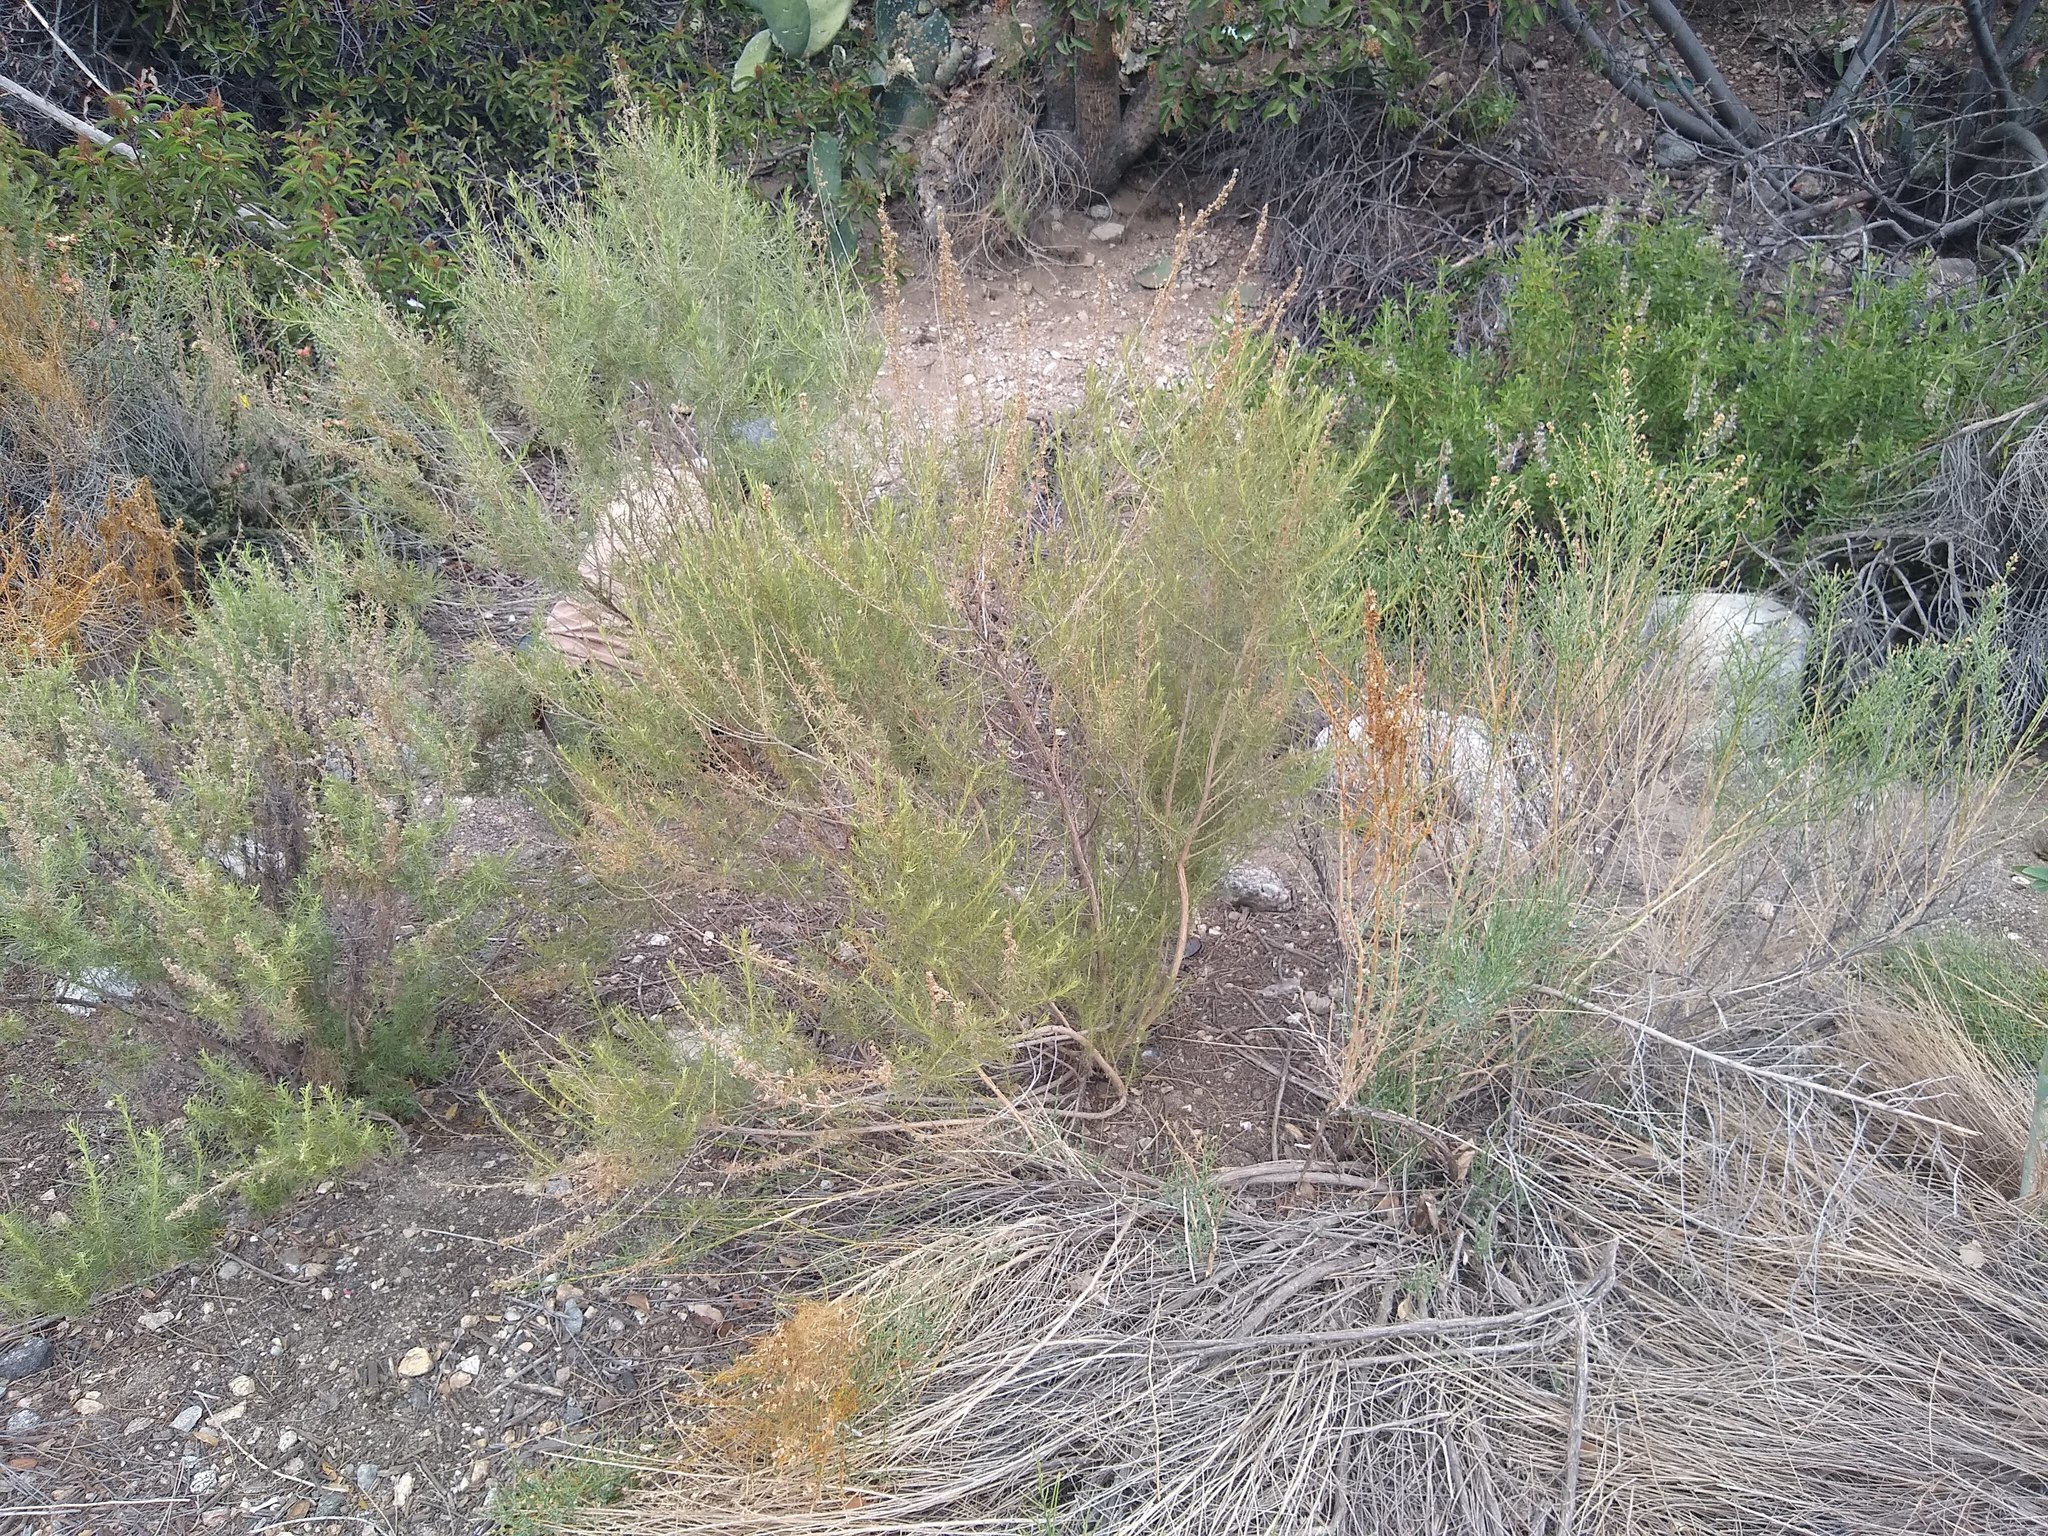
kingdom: Plantae
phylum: Tracheophyta
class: Magnoliopsida
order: Asterales
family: Asteraceae
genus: Artemisia
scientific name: Artemisia californica
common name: California sagebrush
